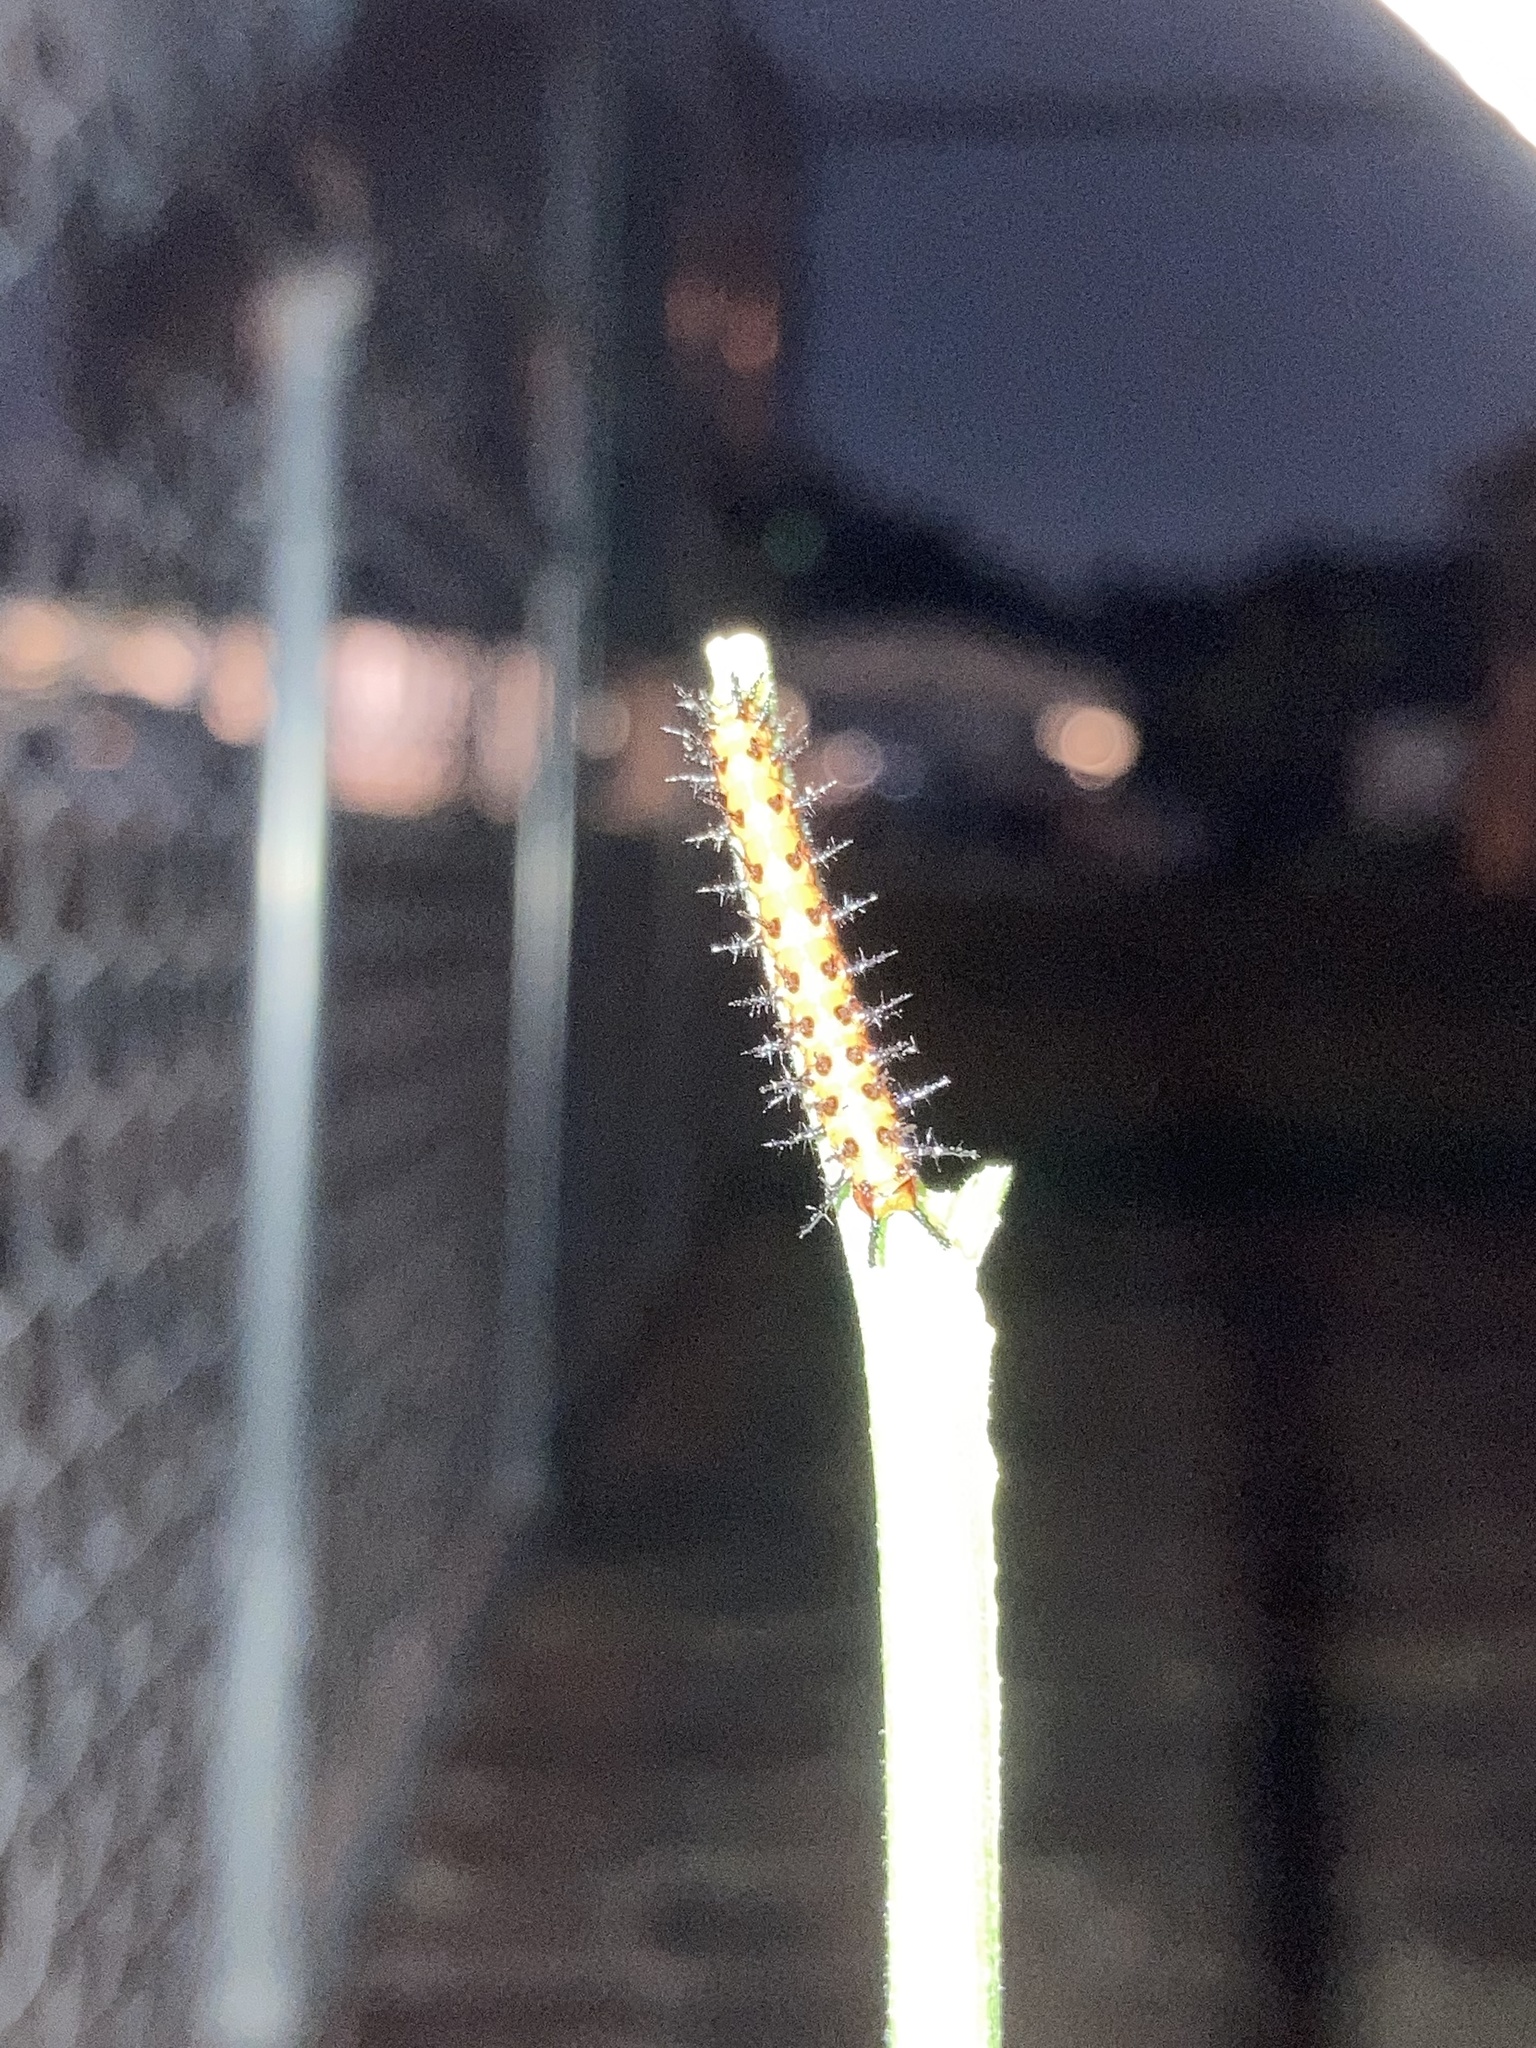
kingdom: Animalia
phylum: Arthropoda
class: Insecta
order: Lepidoptera
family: Nymphalidae
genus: Dione
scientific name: Dione vanillae
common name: Gulf fritillary
